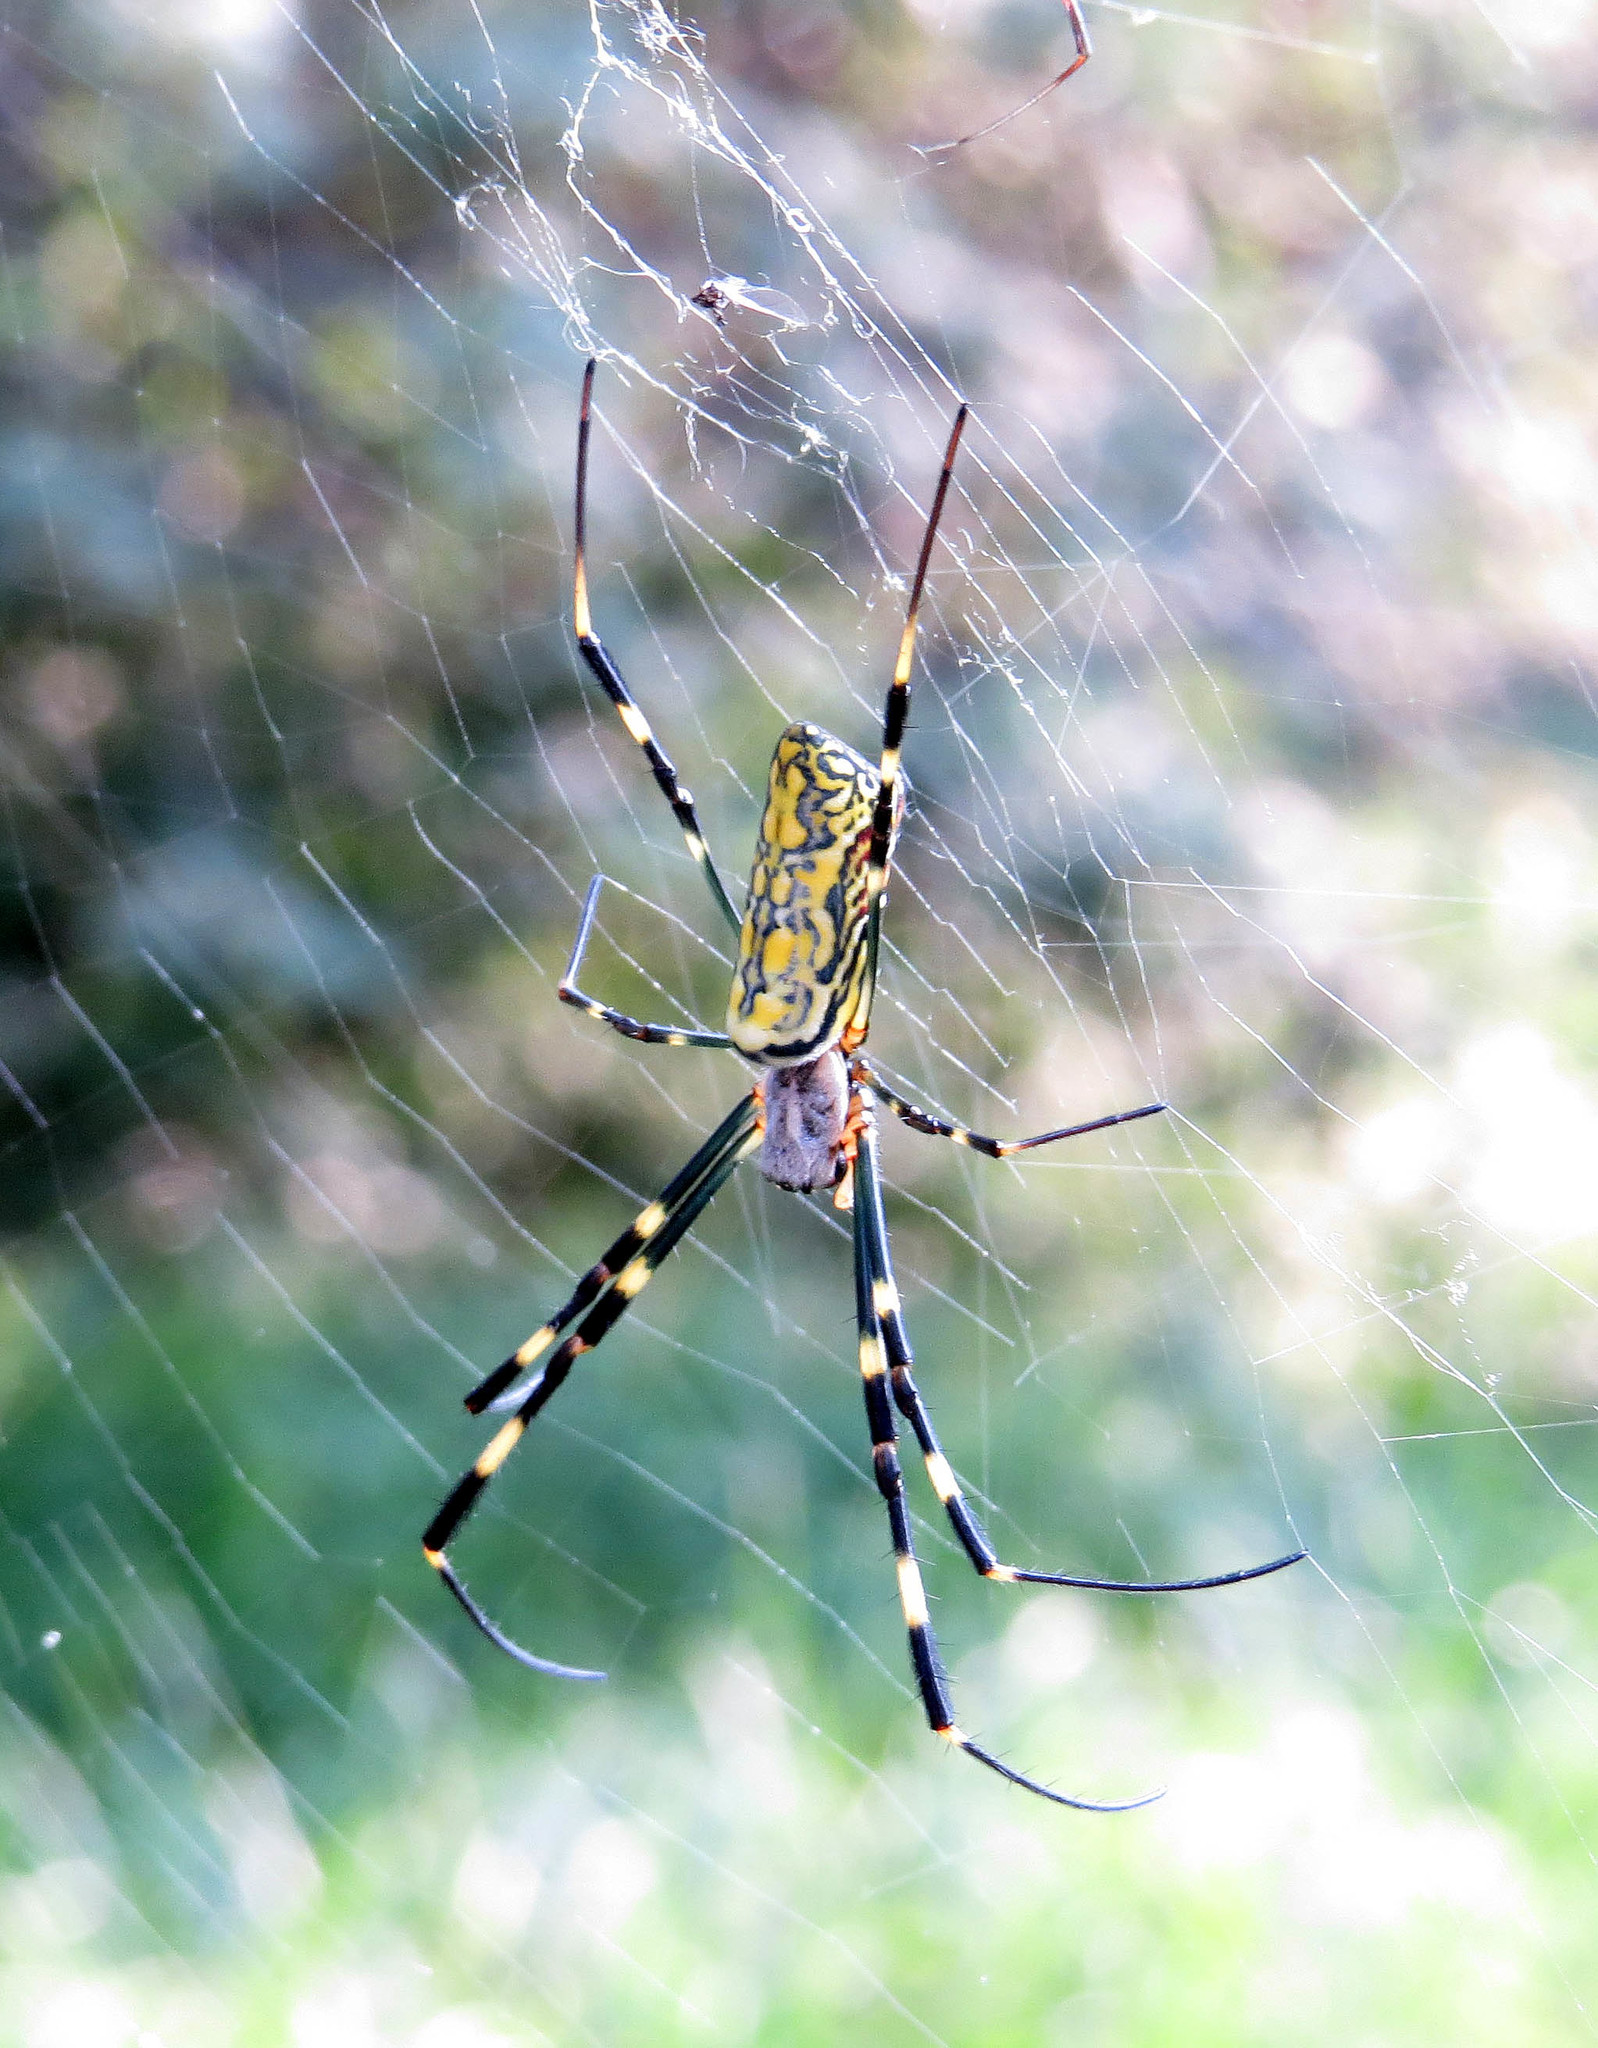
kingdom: Animalia
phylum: Arthropoda
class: Arachnida
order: Araneae
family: Araneidae
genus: Trichonephila
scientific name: Trichonephila clavata
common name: Jorō spider
